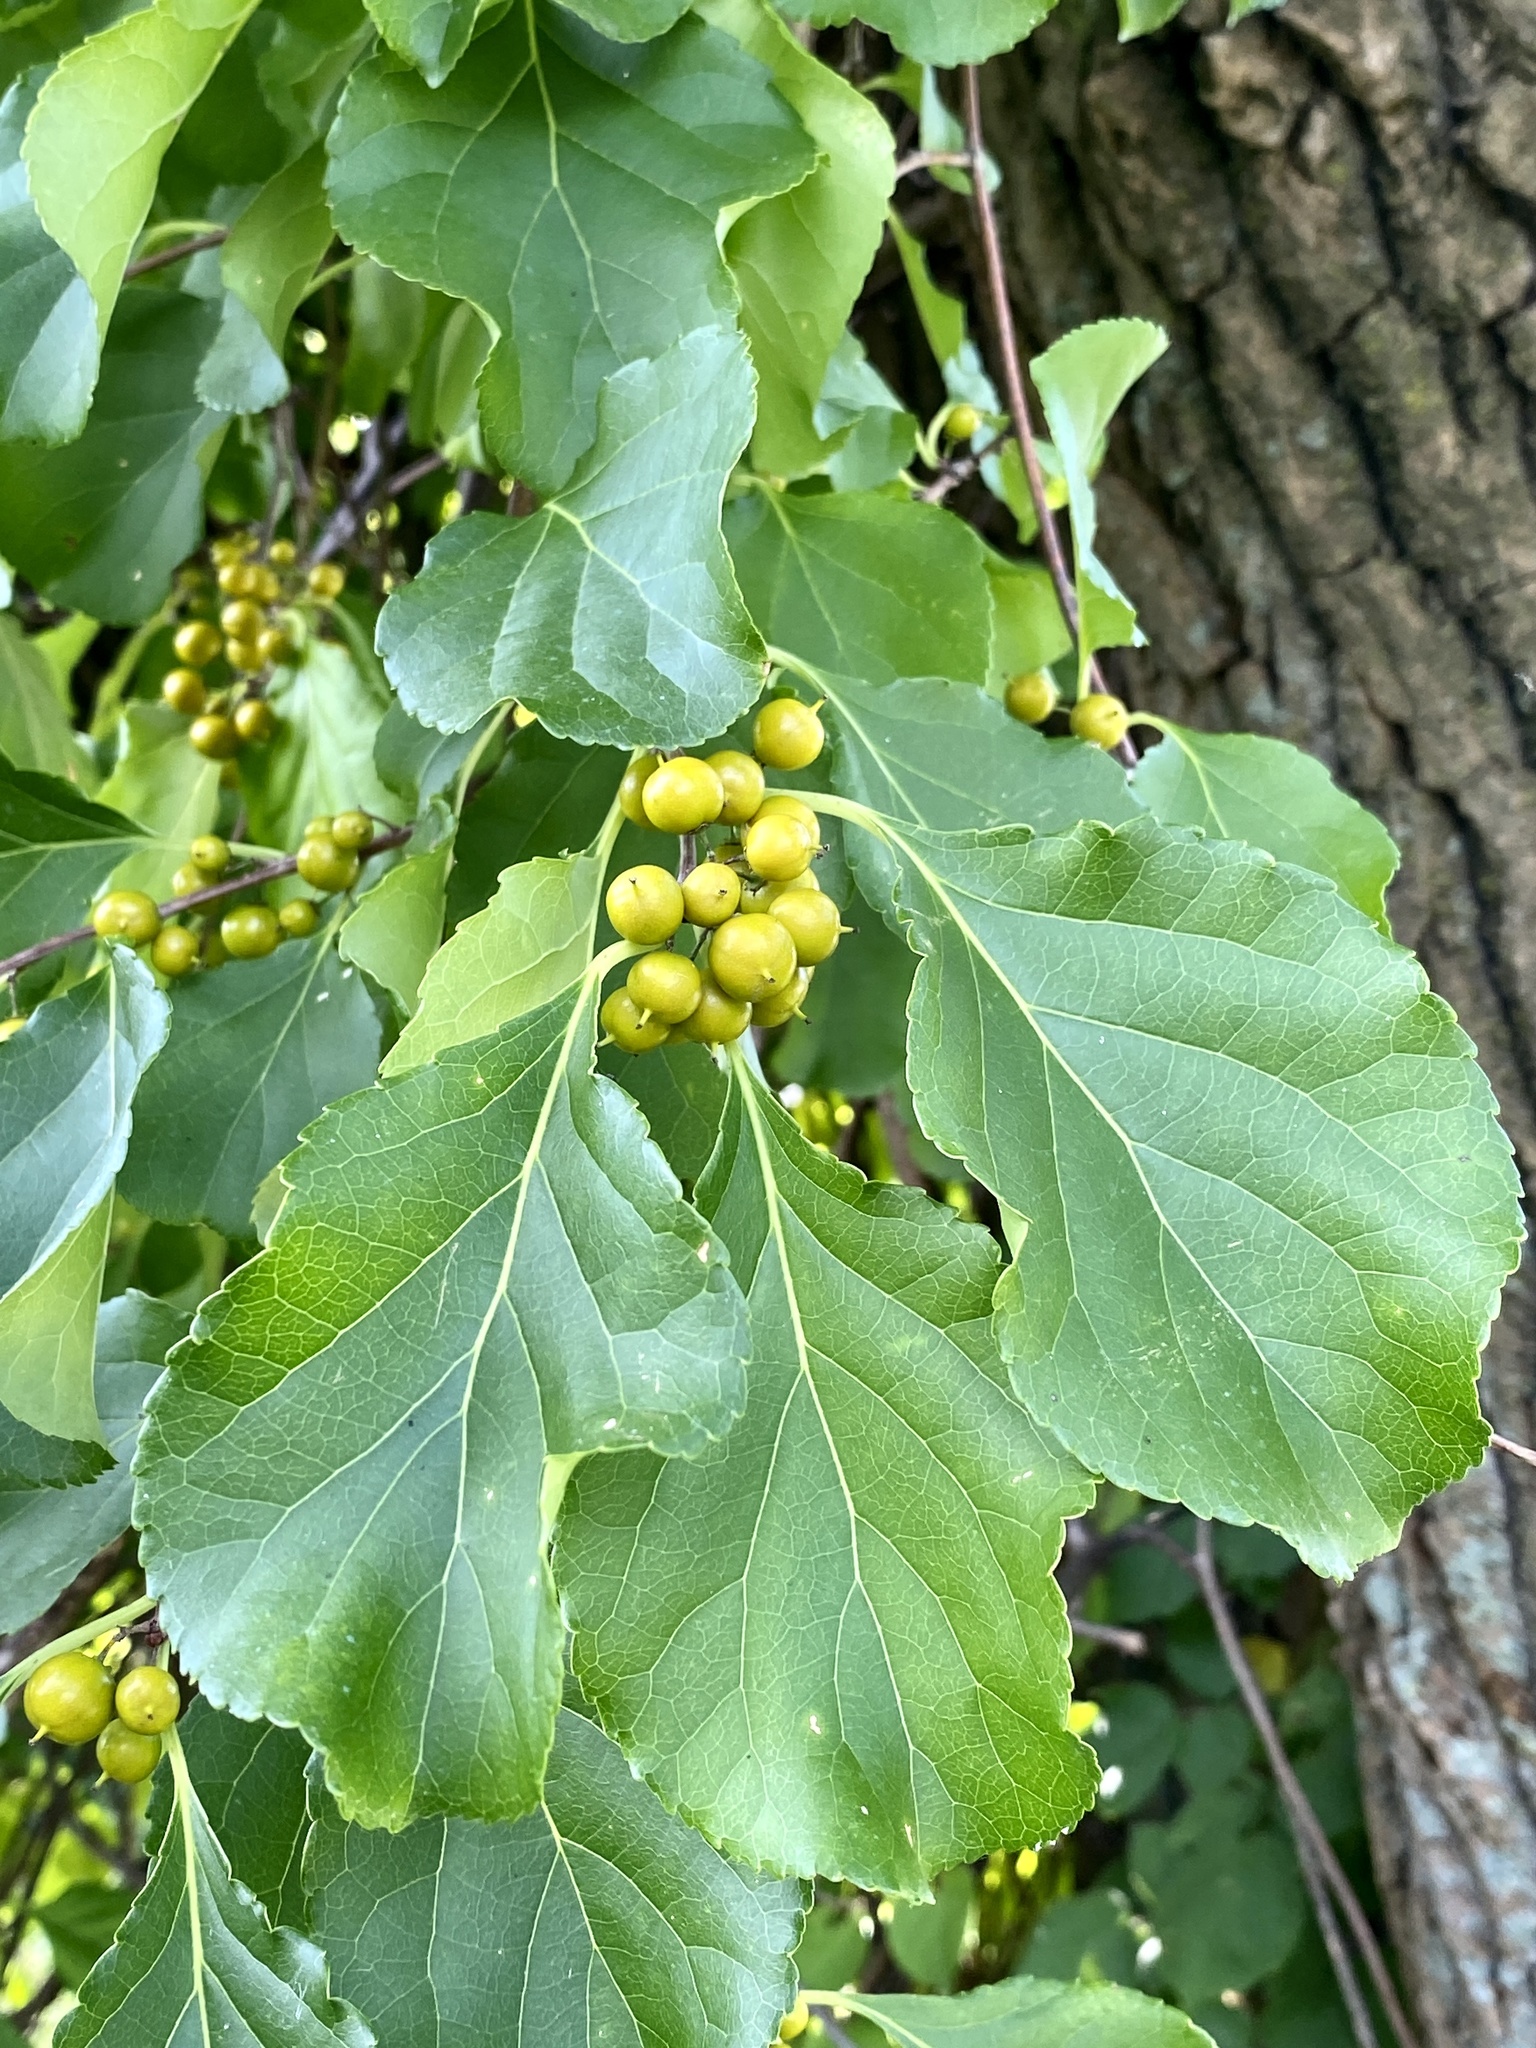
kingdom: Plantae
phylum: Tracheophyta
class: Magnoliopsida
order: Celastrales
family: Celastraceae
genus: Celastrus
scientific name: Celastrus orbiculatus
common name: Oriental bittersweet
